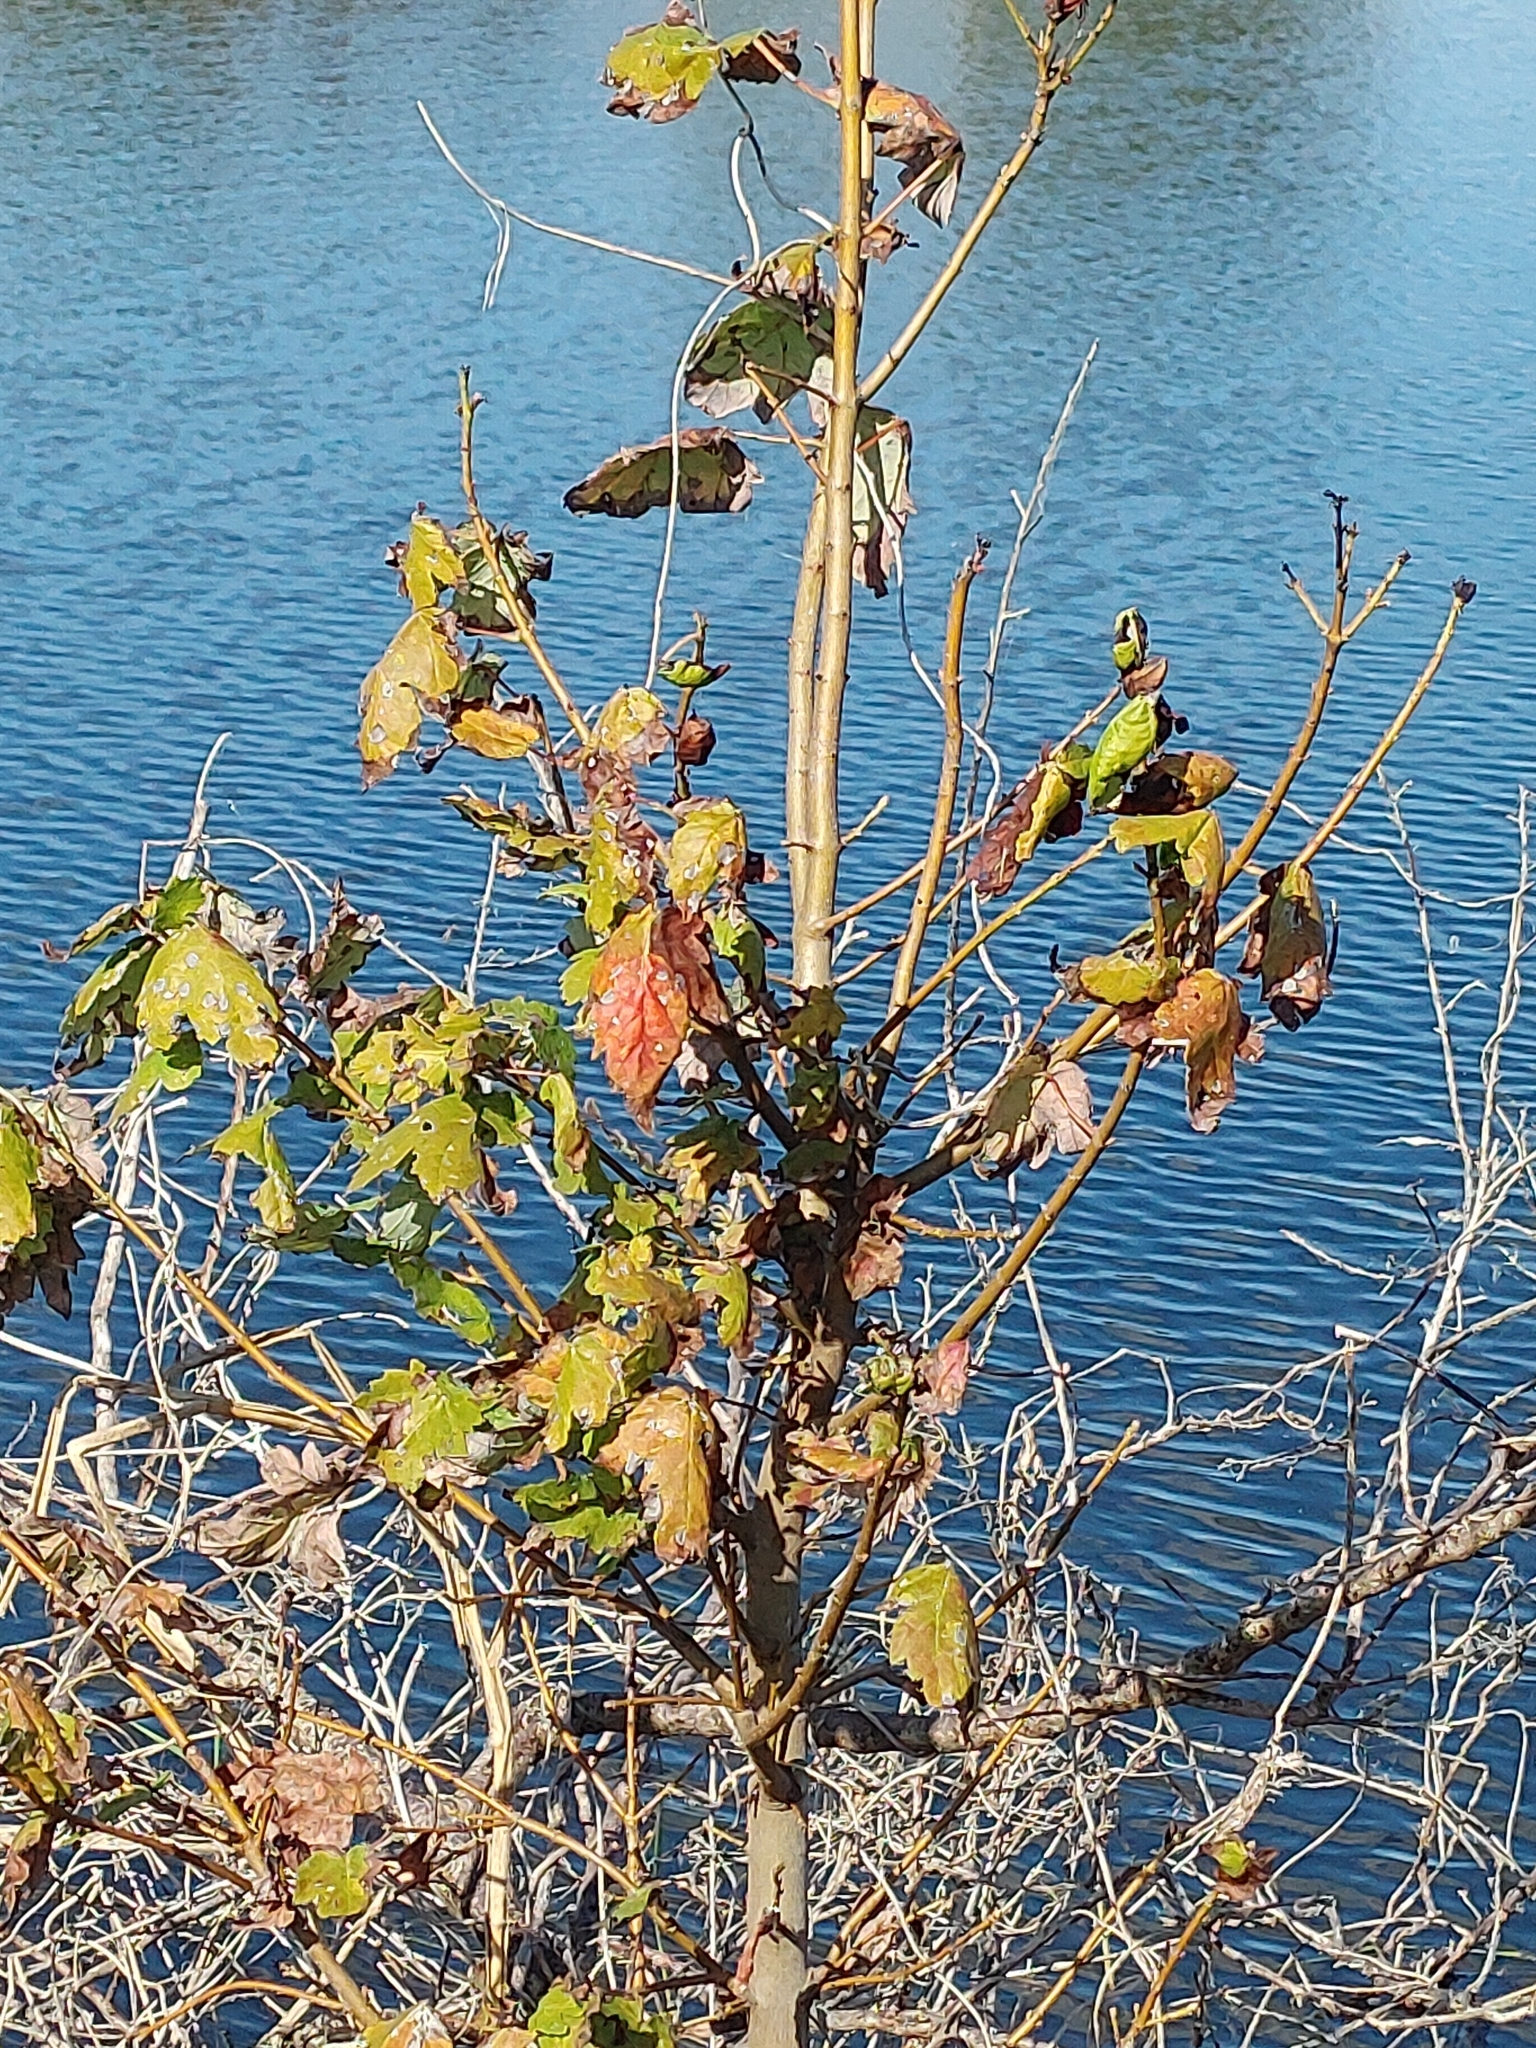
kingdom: Plantae
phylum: Tracheophyta
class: Magnoliopsida
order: Sapindales
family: Sapindaceae
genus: Acer
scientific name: Acer rubrum
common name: Red maple
